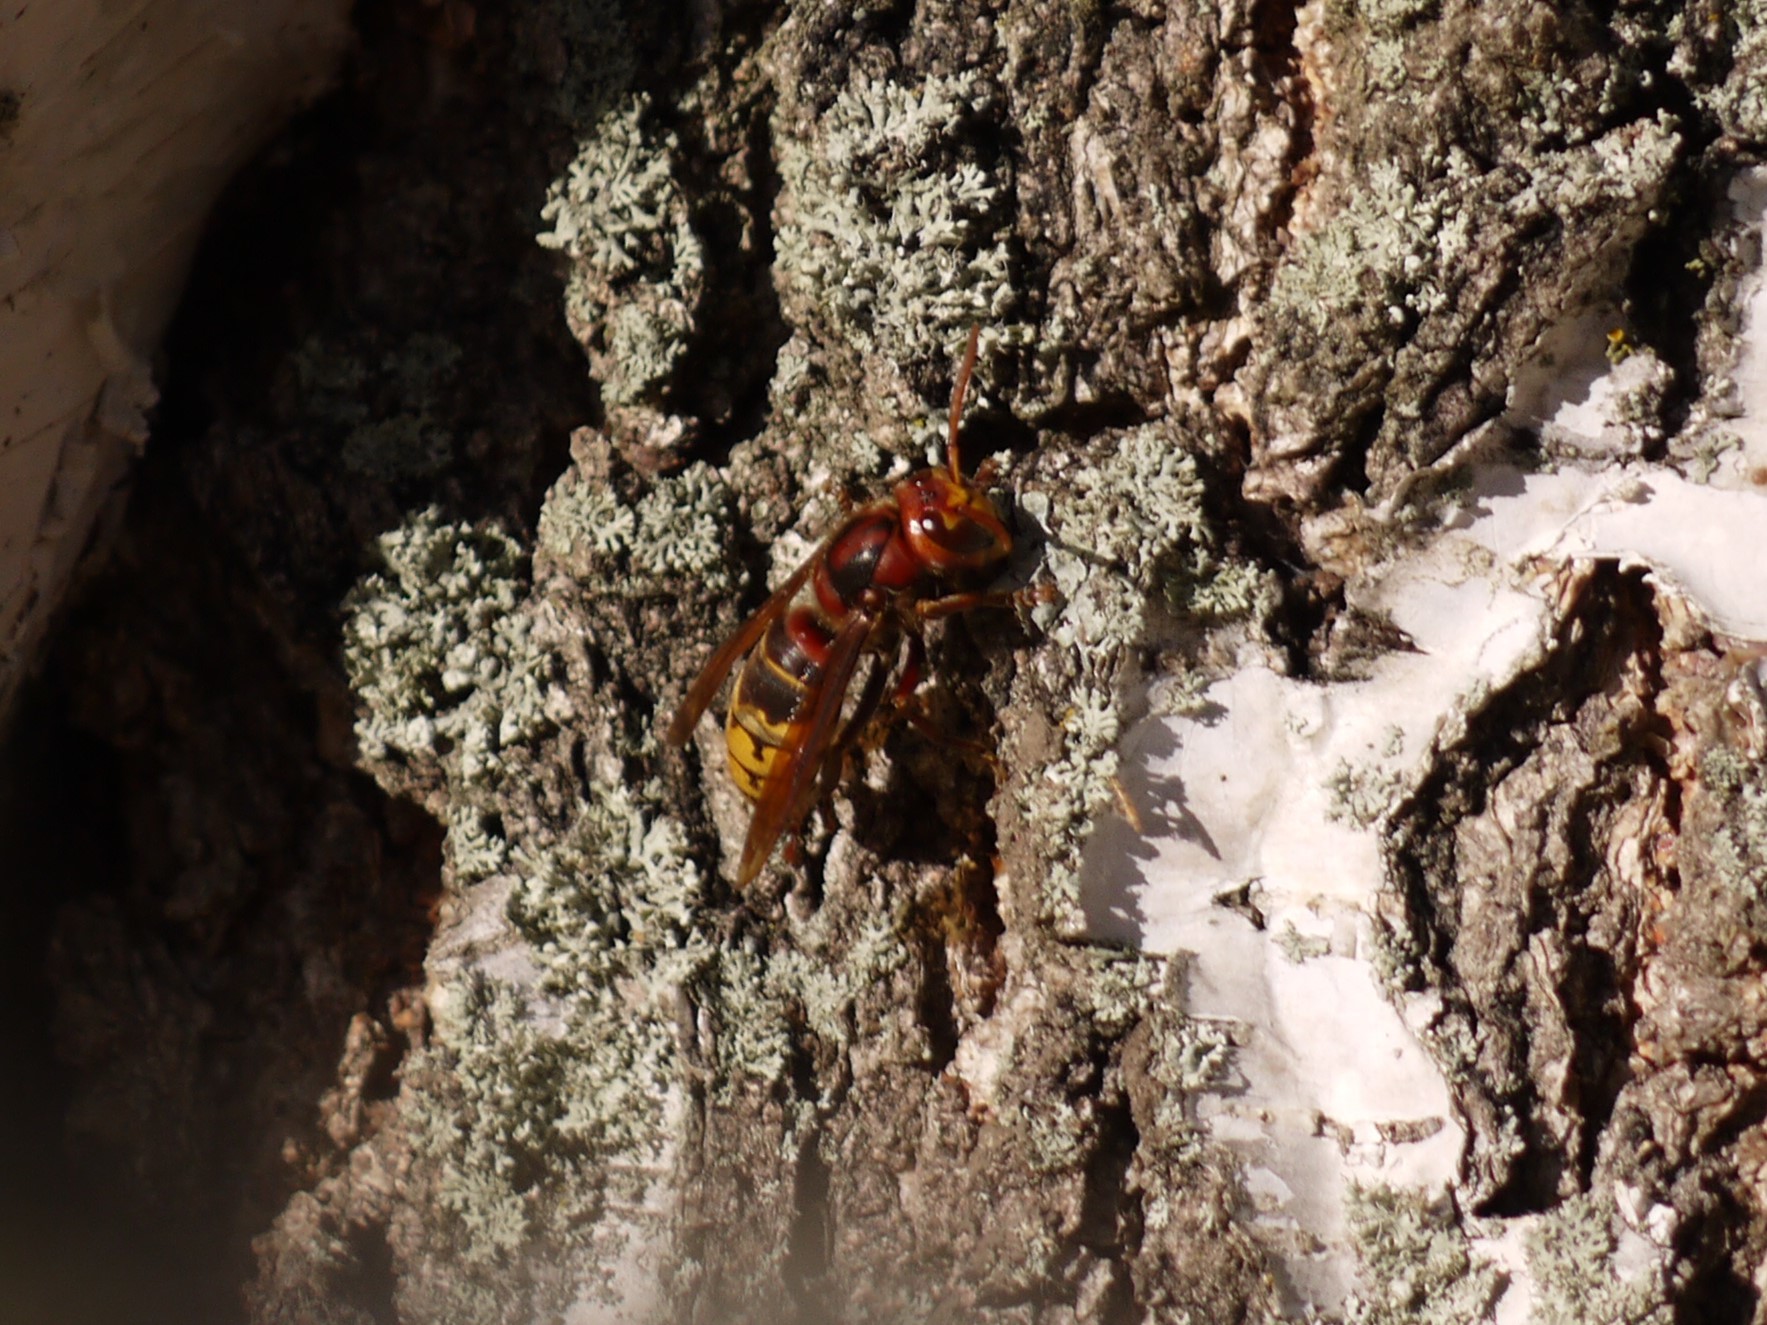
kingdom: Animalia
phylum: Arthropoda
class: Insecta
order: Hymenoptera
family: Vespidae
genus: Vespa
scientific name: Vespa crabro
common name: Hornet
